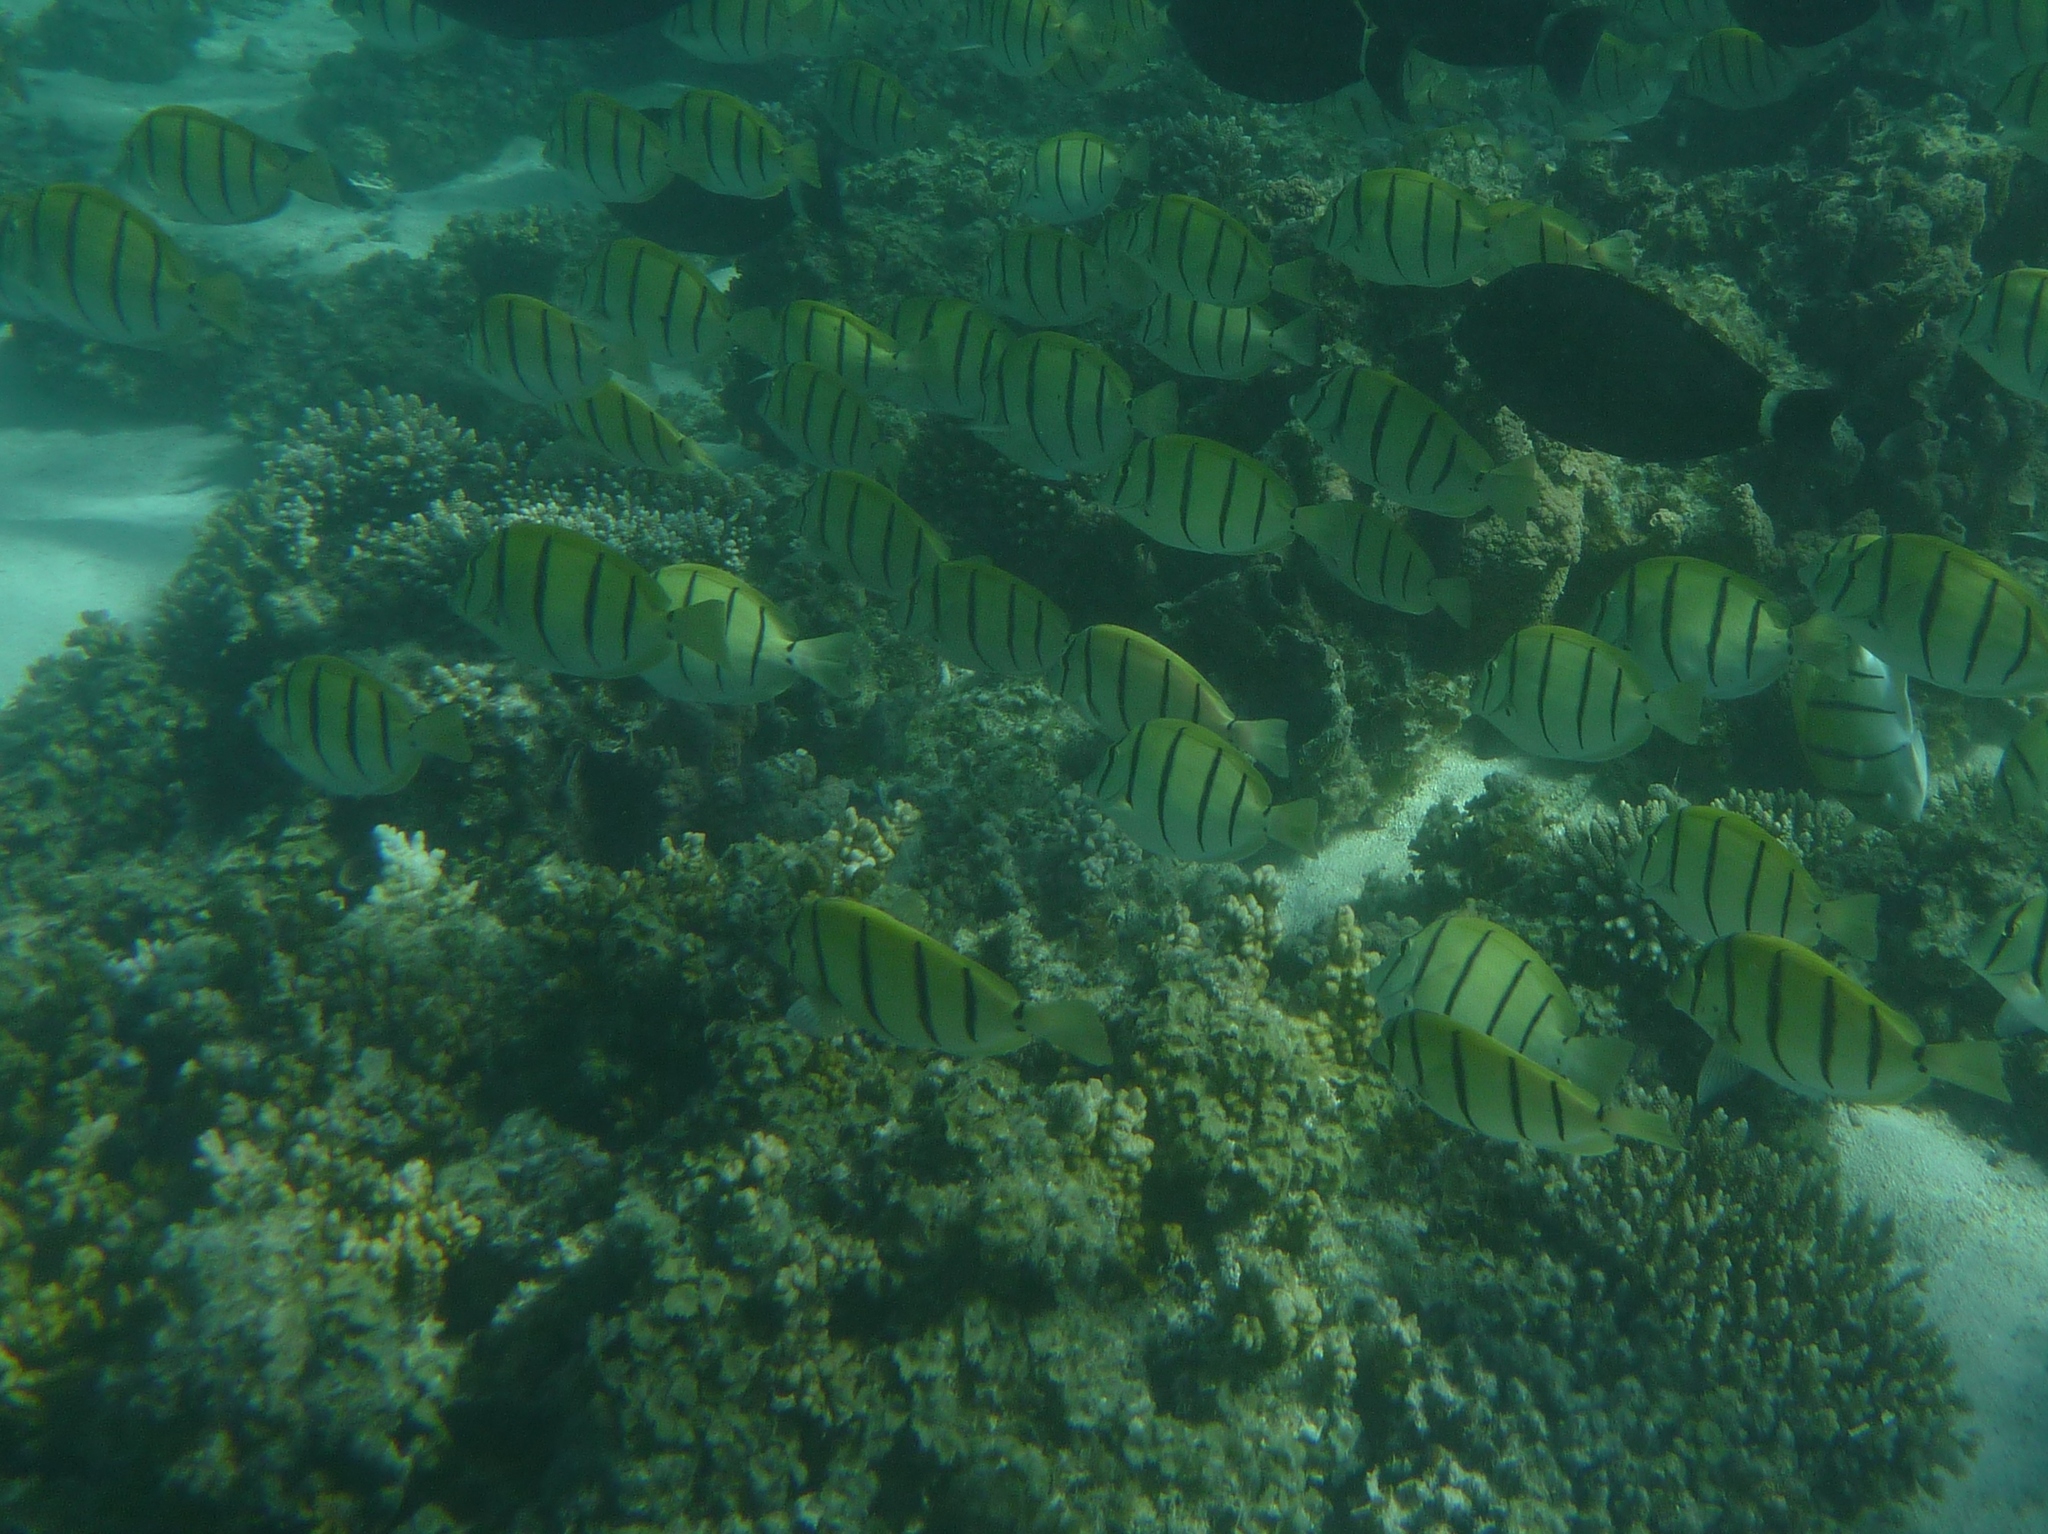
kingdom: Animalia
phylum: Chordata
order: Perciformes
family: Acanthuridae
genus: Acanthurus
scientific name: Acanthurus triostegus
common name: Convict surgeonfish
